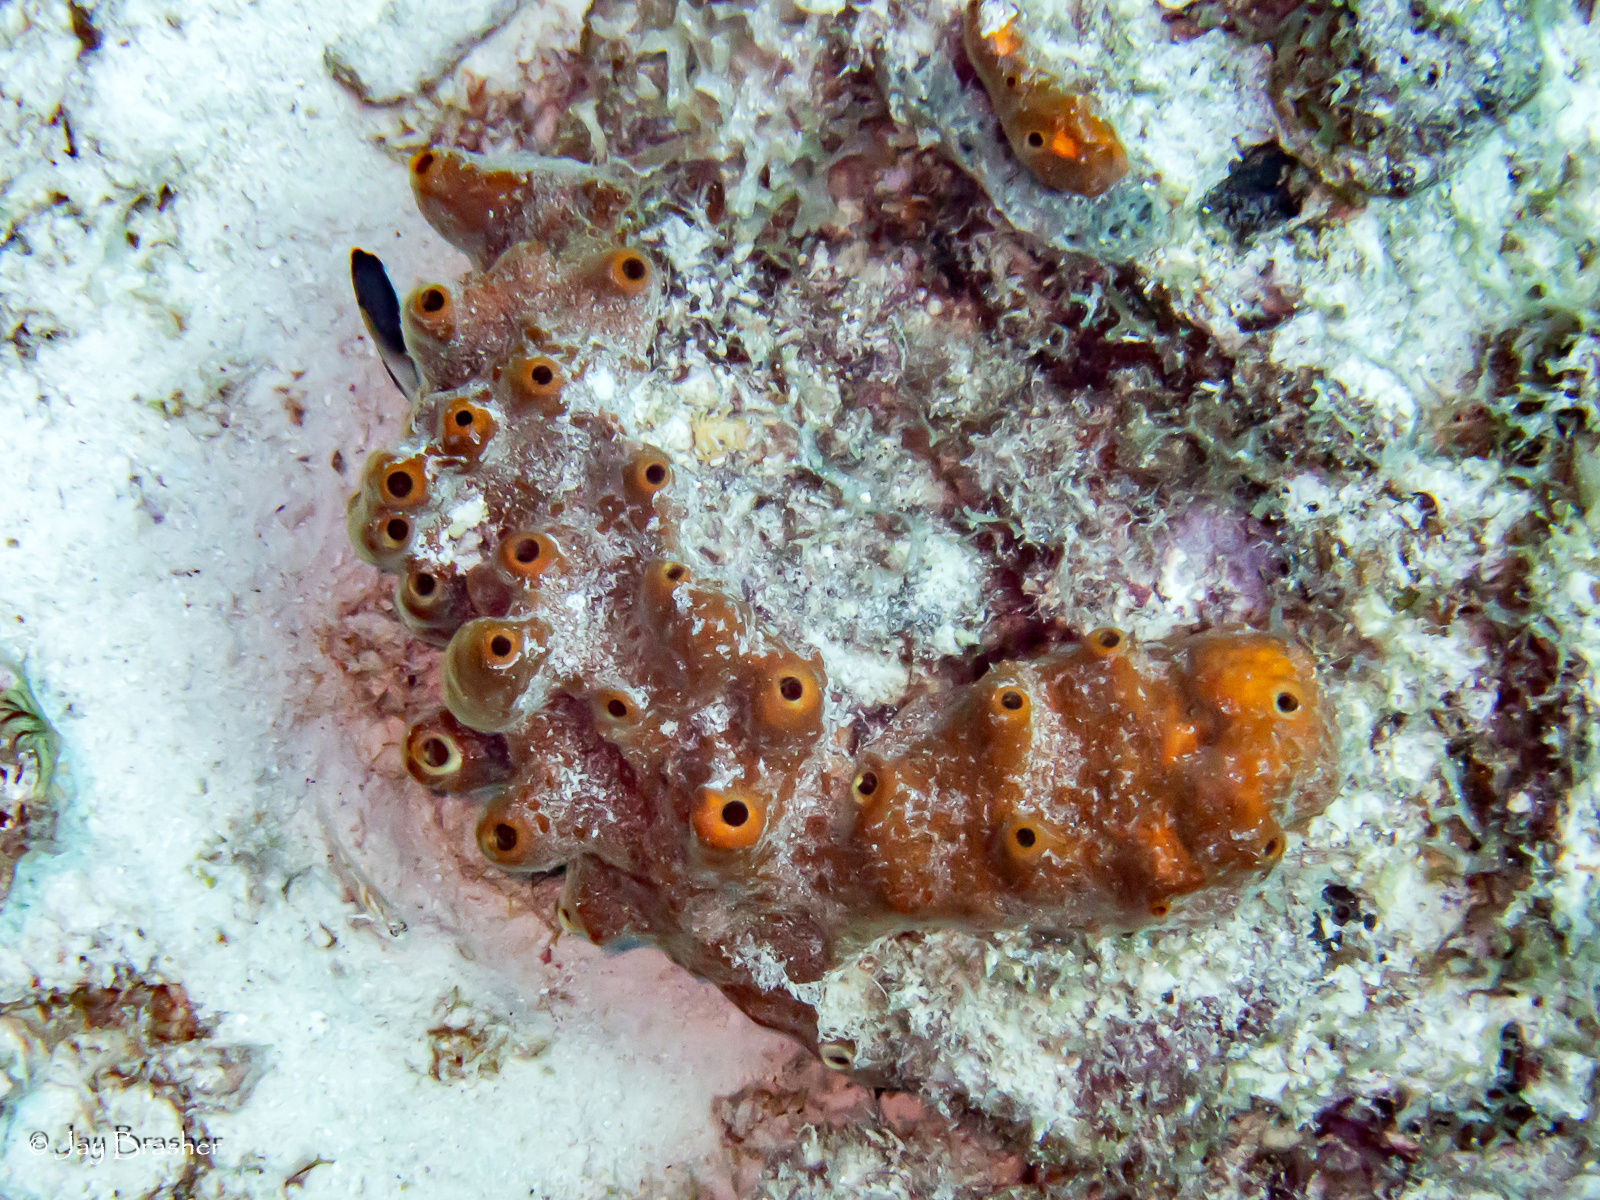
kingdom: Animalia
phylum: Porifera
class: Demospongiae
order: Axinellida
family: Raspailiidae
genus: Ectyoplasia
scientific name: Ectyoplasia ferox
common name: Brown encrusting octopus sponge
